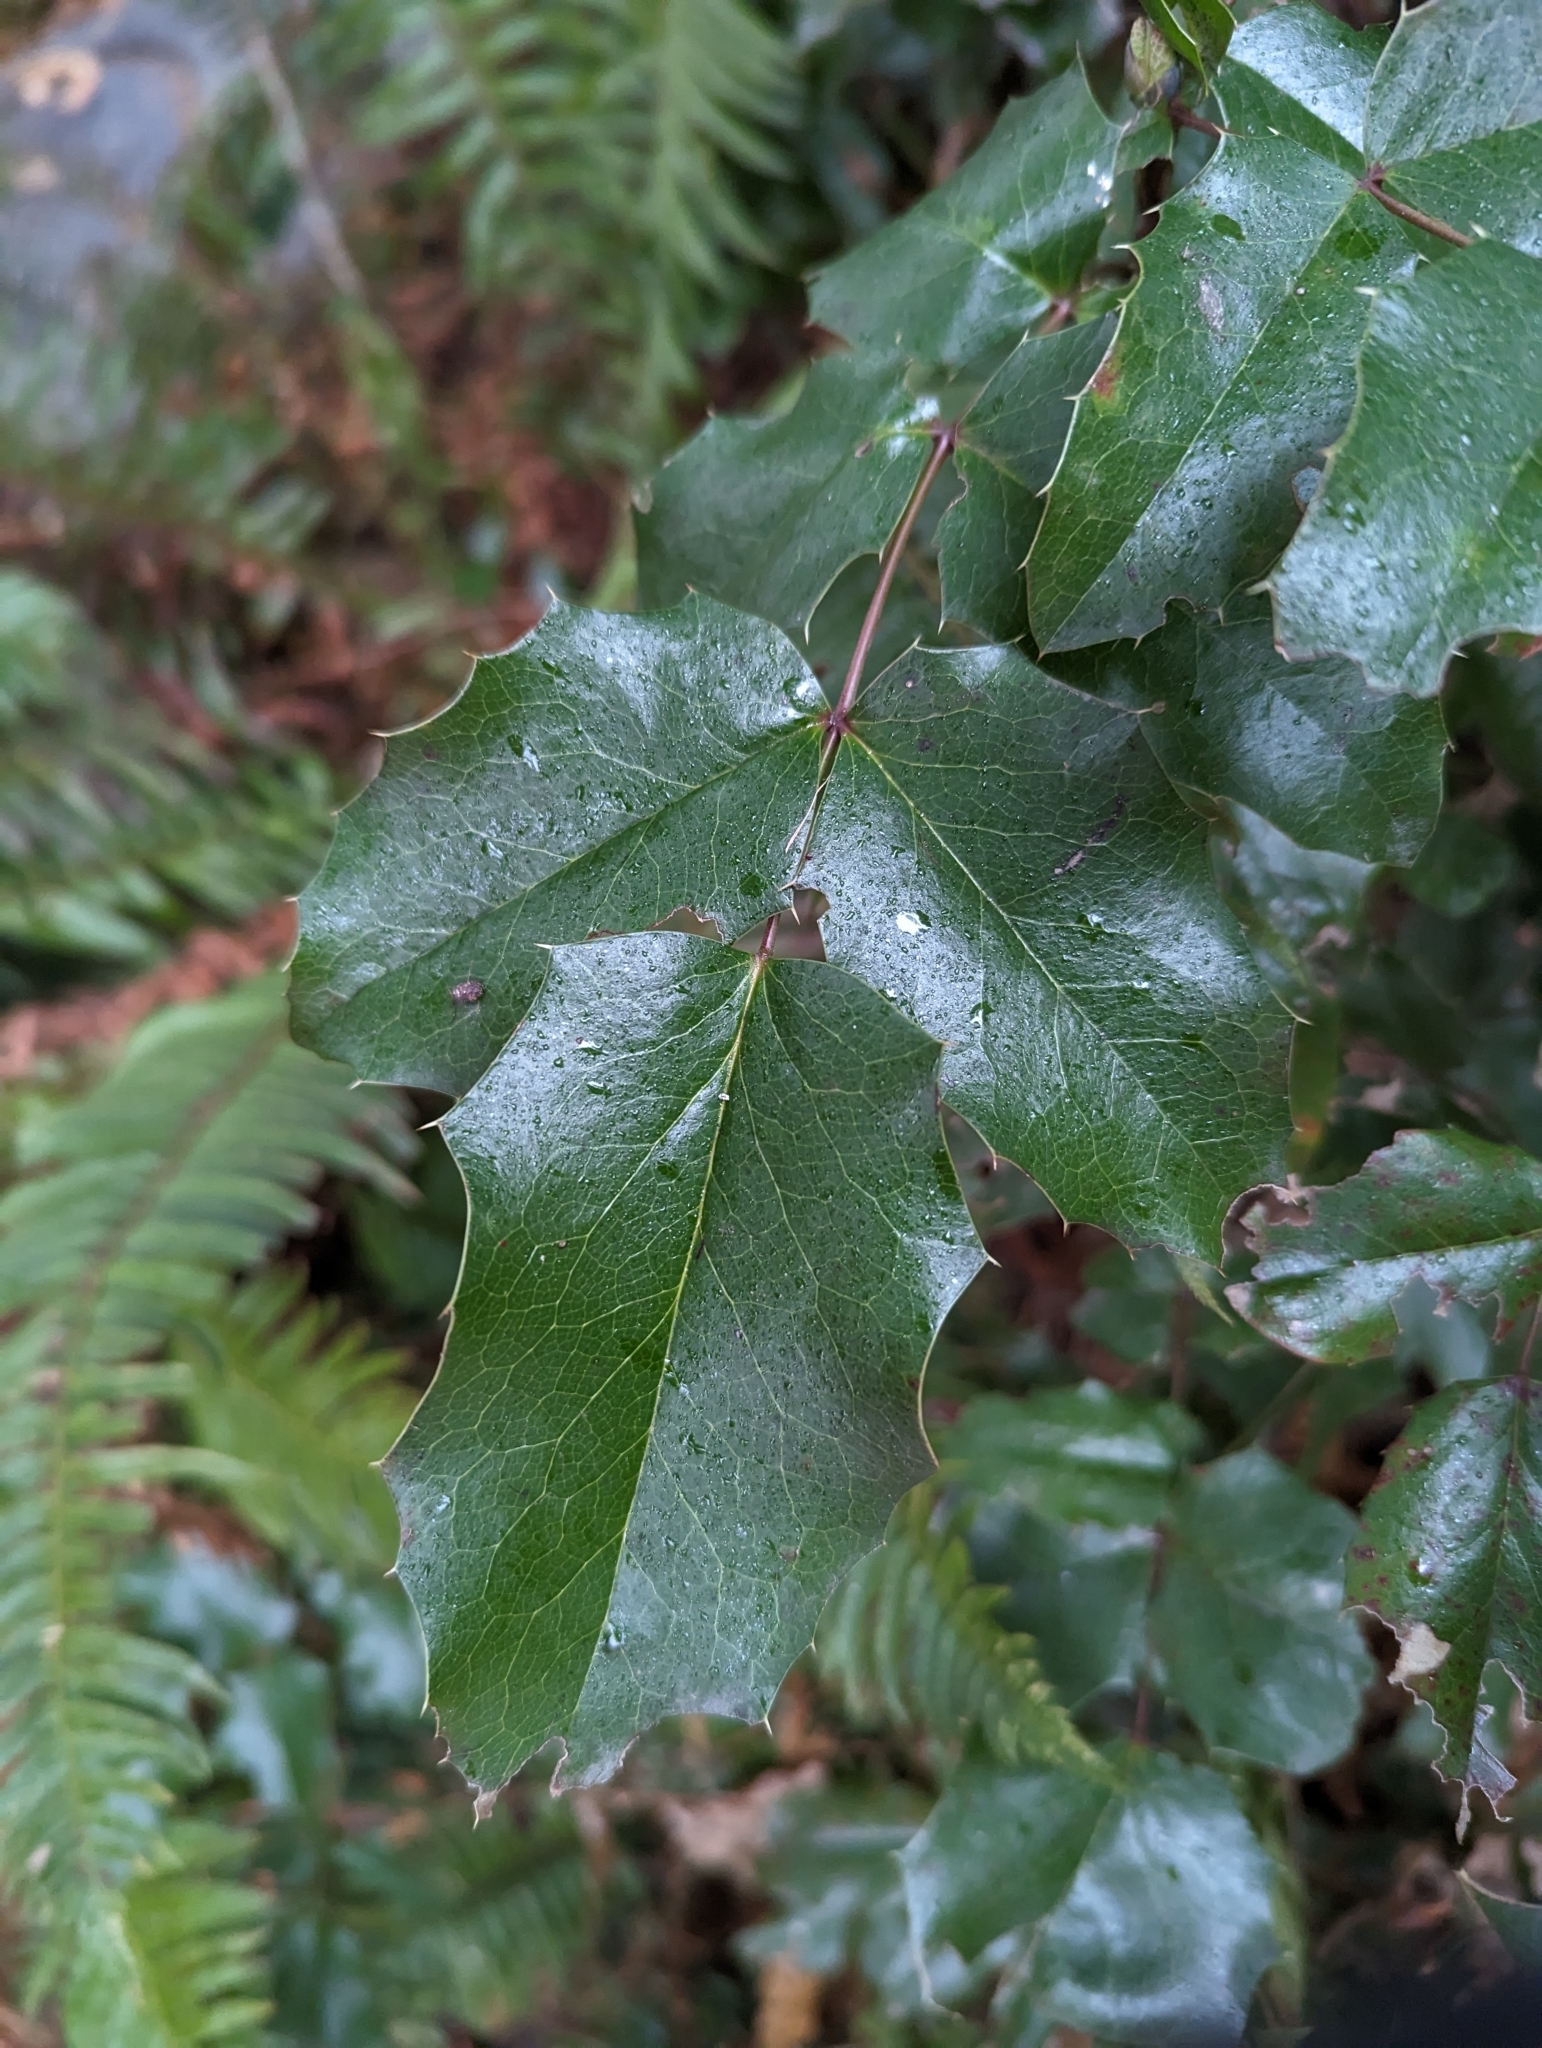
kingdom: Plantae
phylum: Tracheophyta
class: Magnoliopsida
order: Ranunculales
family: Berberidaceae
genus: Mahonia
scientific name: Mahonia aquifolium
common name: Oregon-grape
